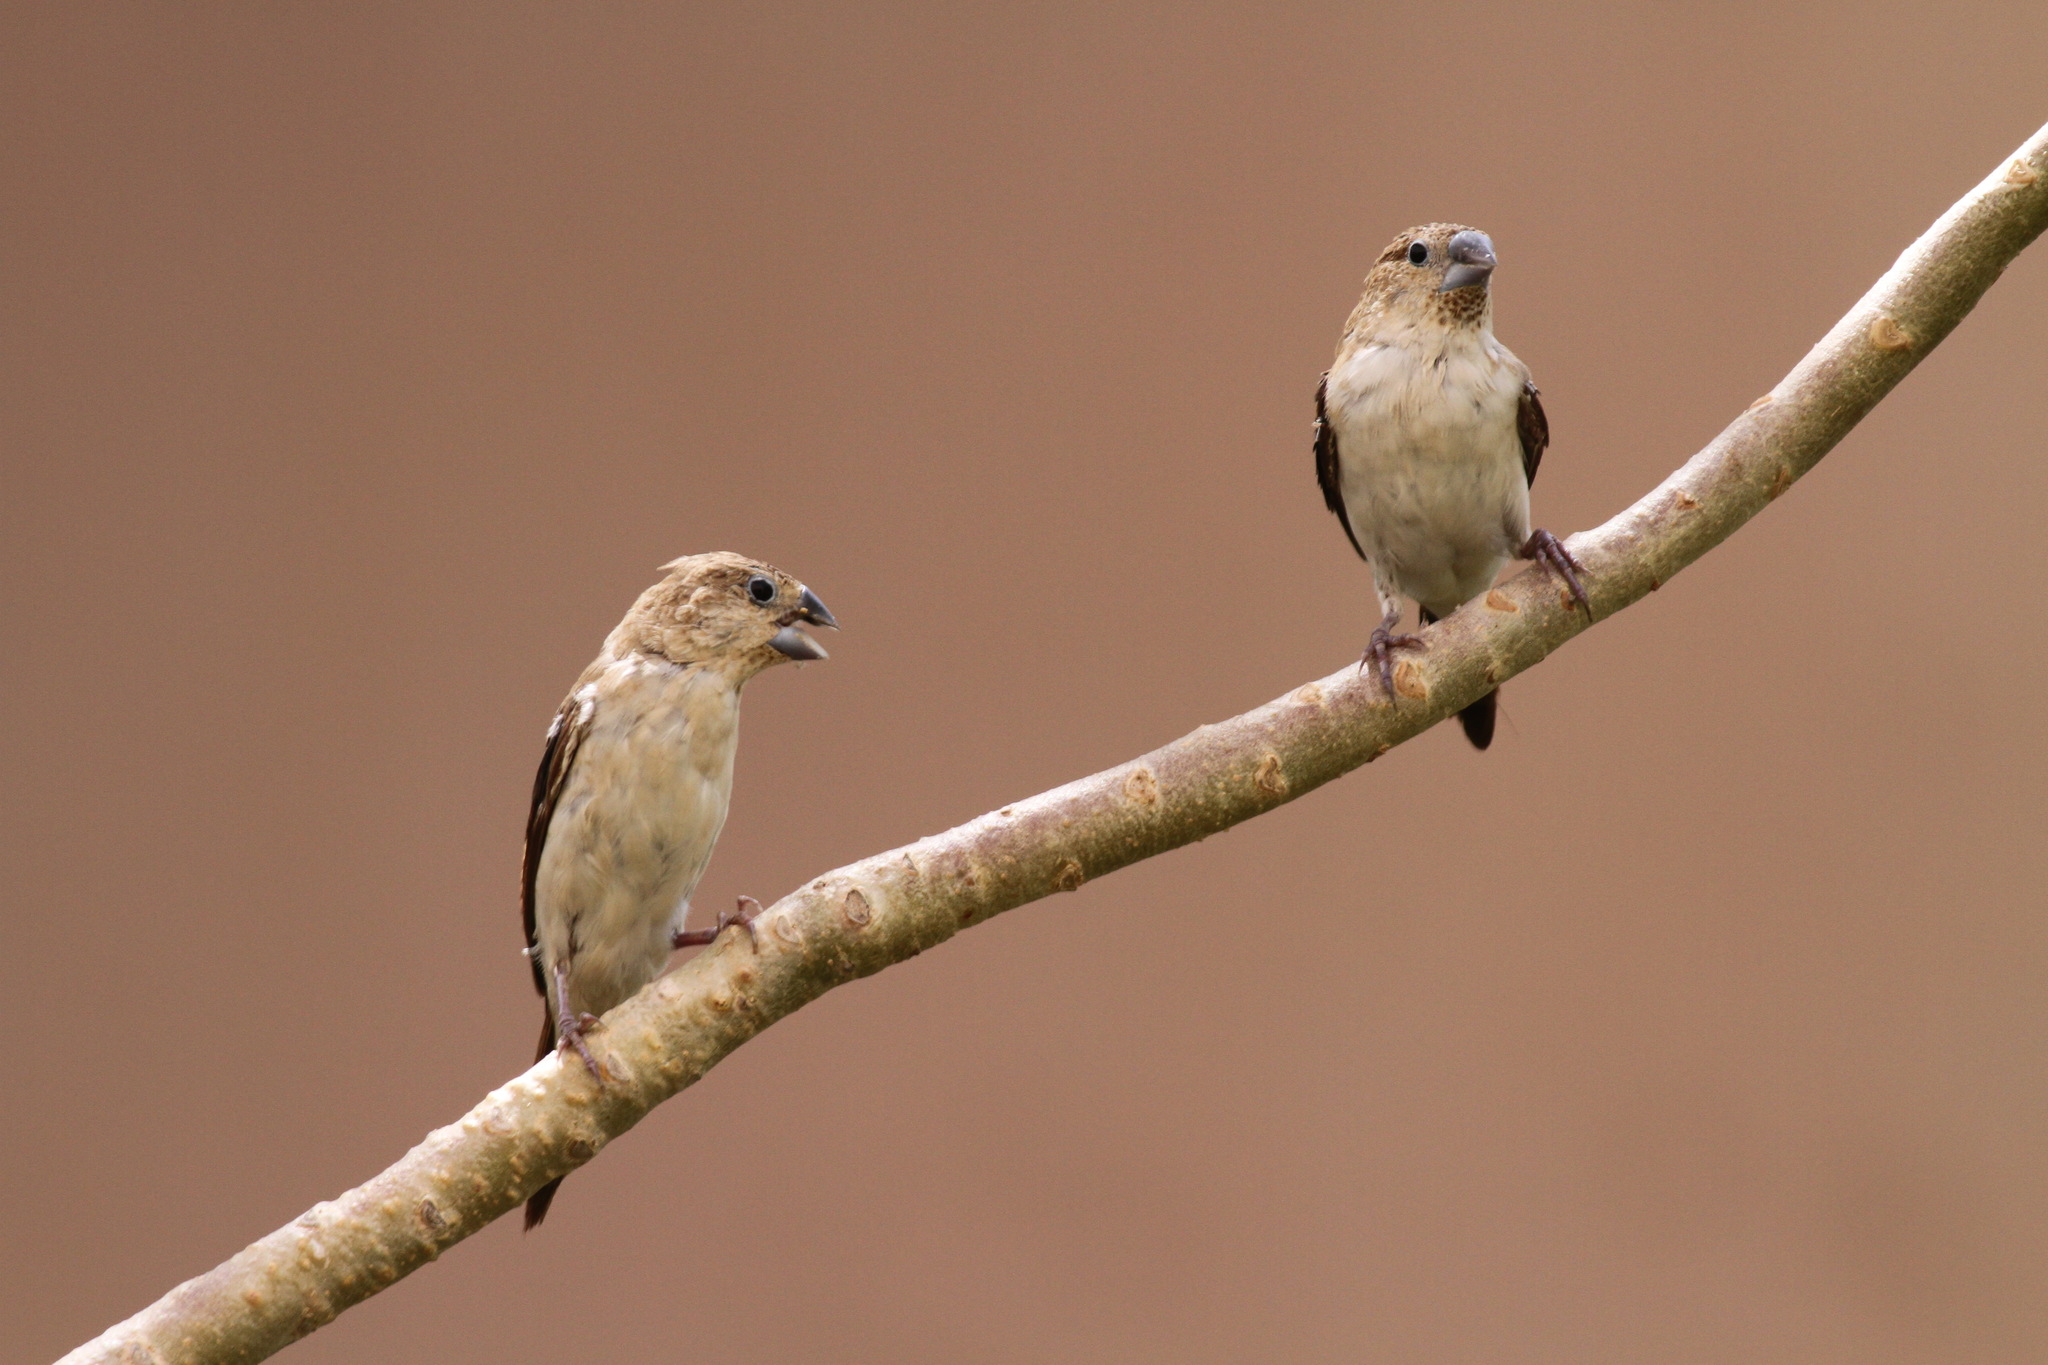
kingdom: Animalia
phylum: Chordata
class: Aves
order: Passeriformes
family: Estrildidae
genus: Euodice
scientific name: Euodice cantans
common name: African silverbill
